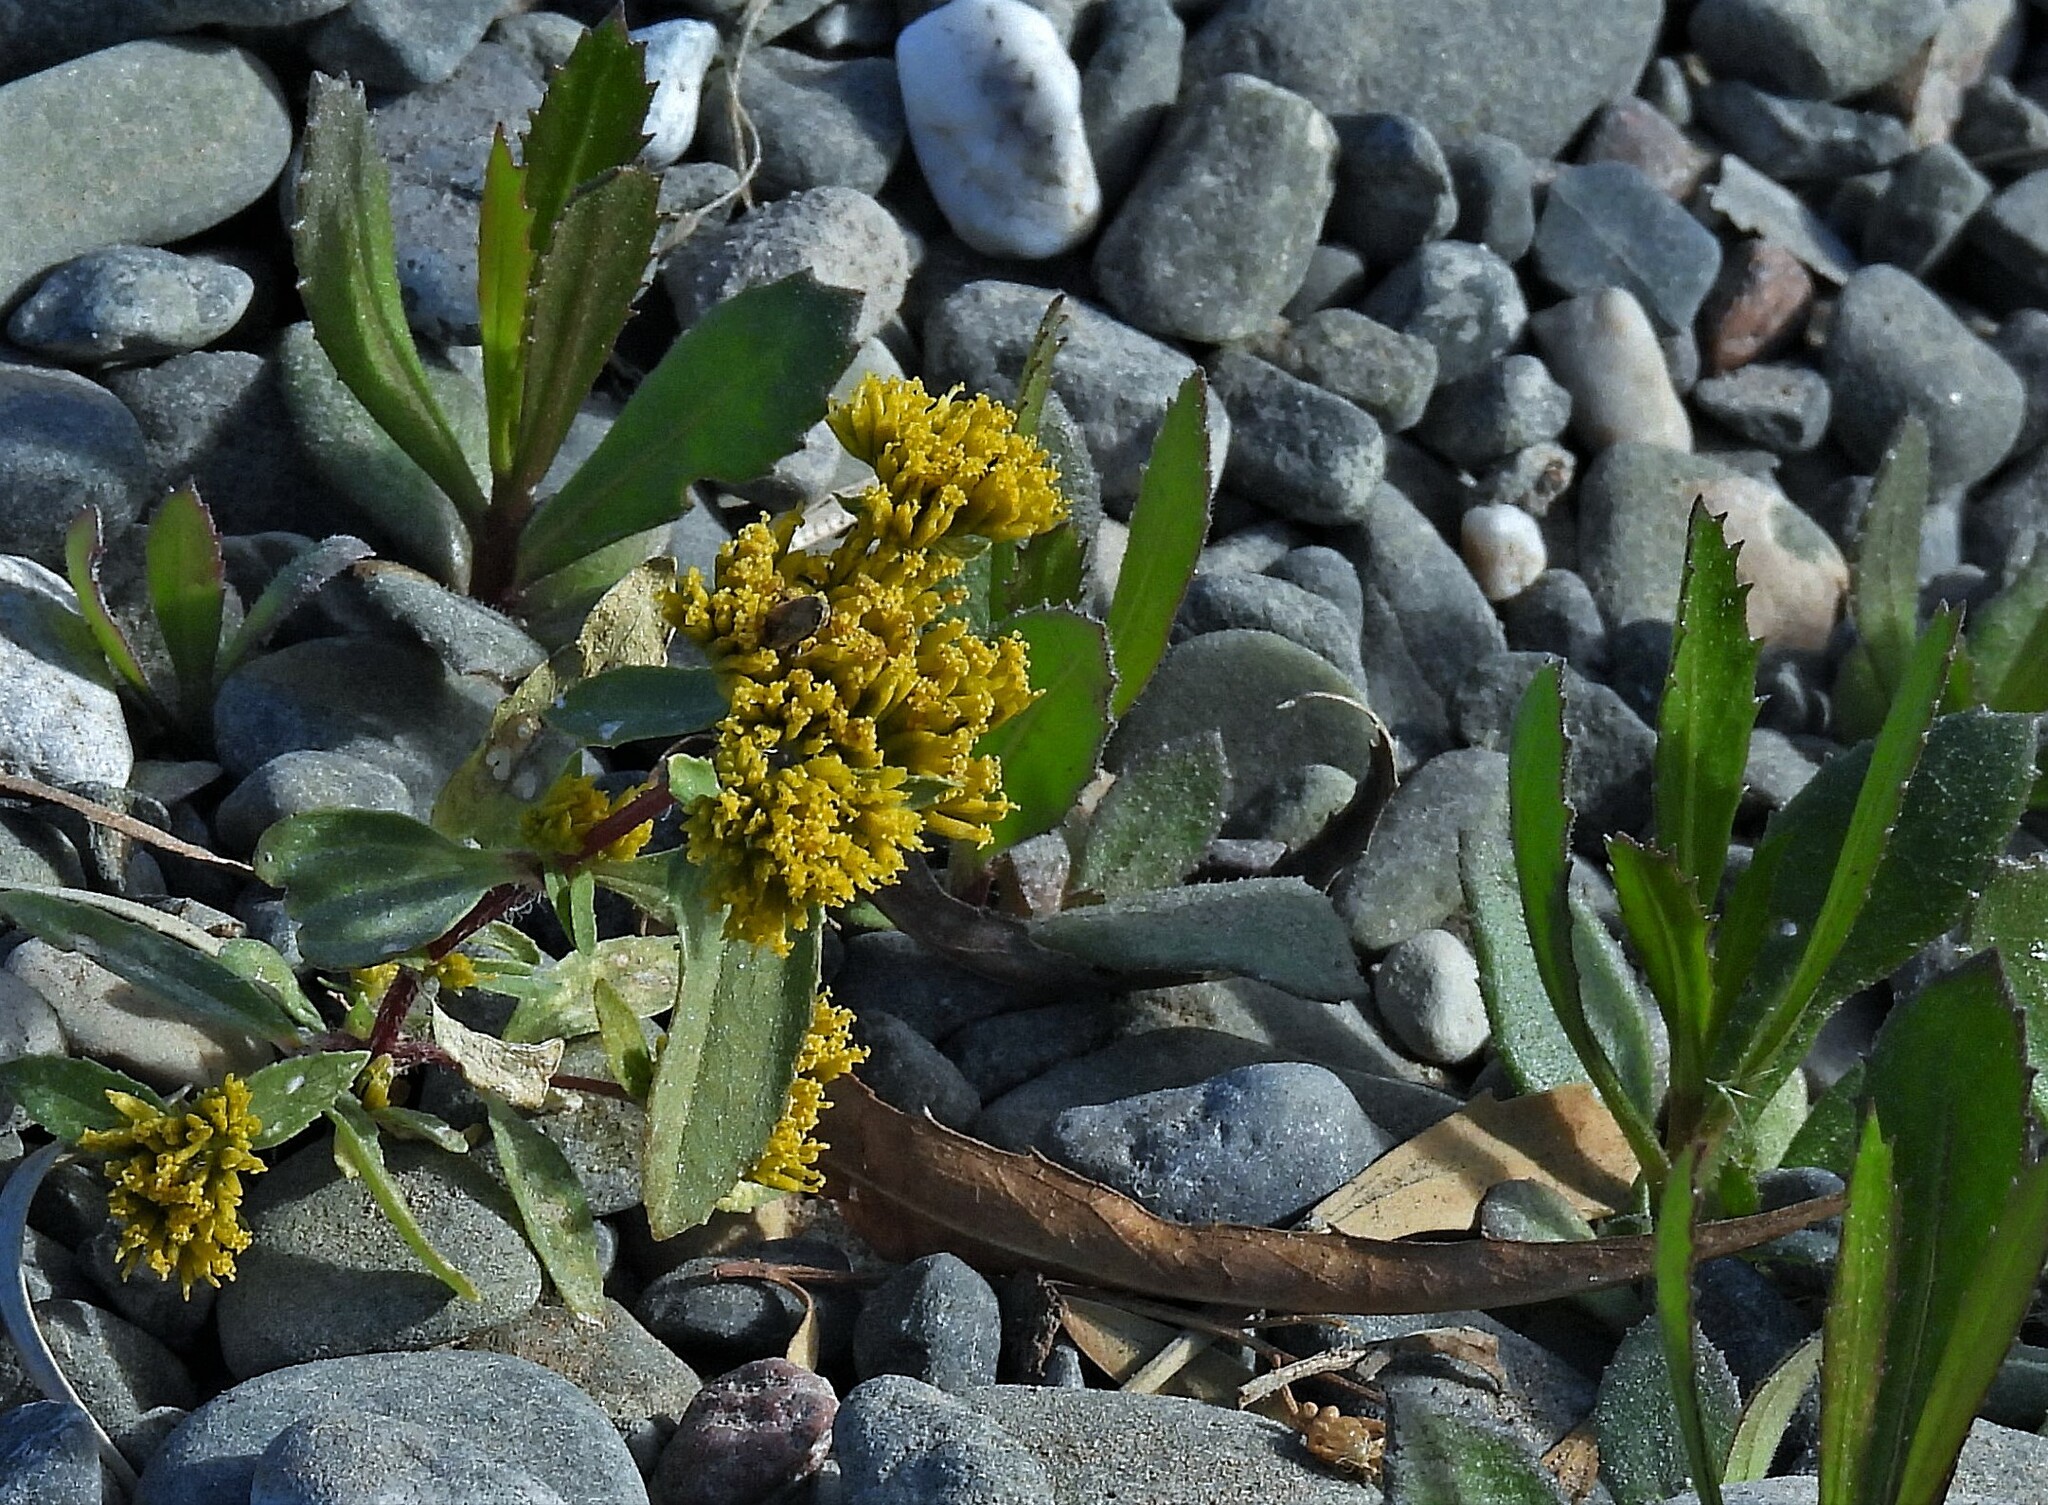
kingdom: Plantae
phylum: Tracheophyta
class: Magnoliopsida
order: Asterales
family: Asteraceae
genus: Flaveria
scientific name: Flaveria bidentis
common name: Coastal plain yellowtops
